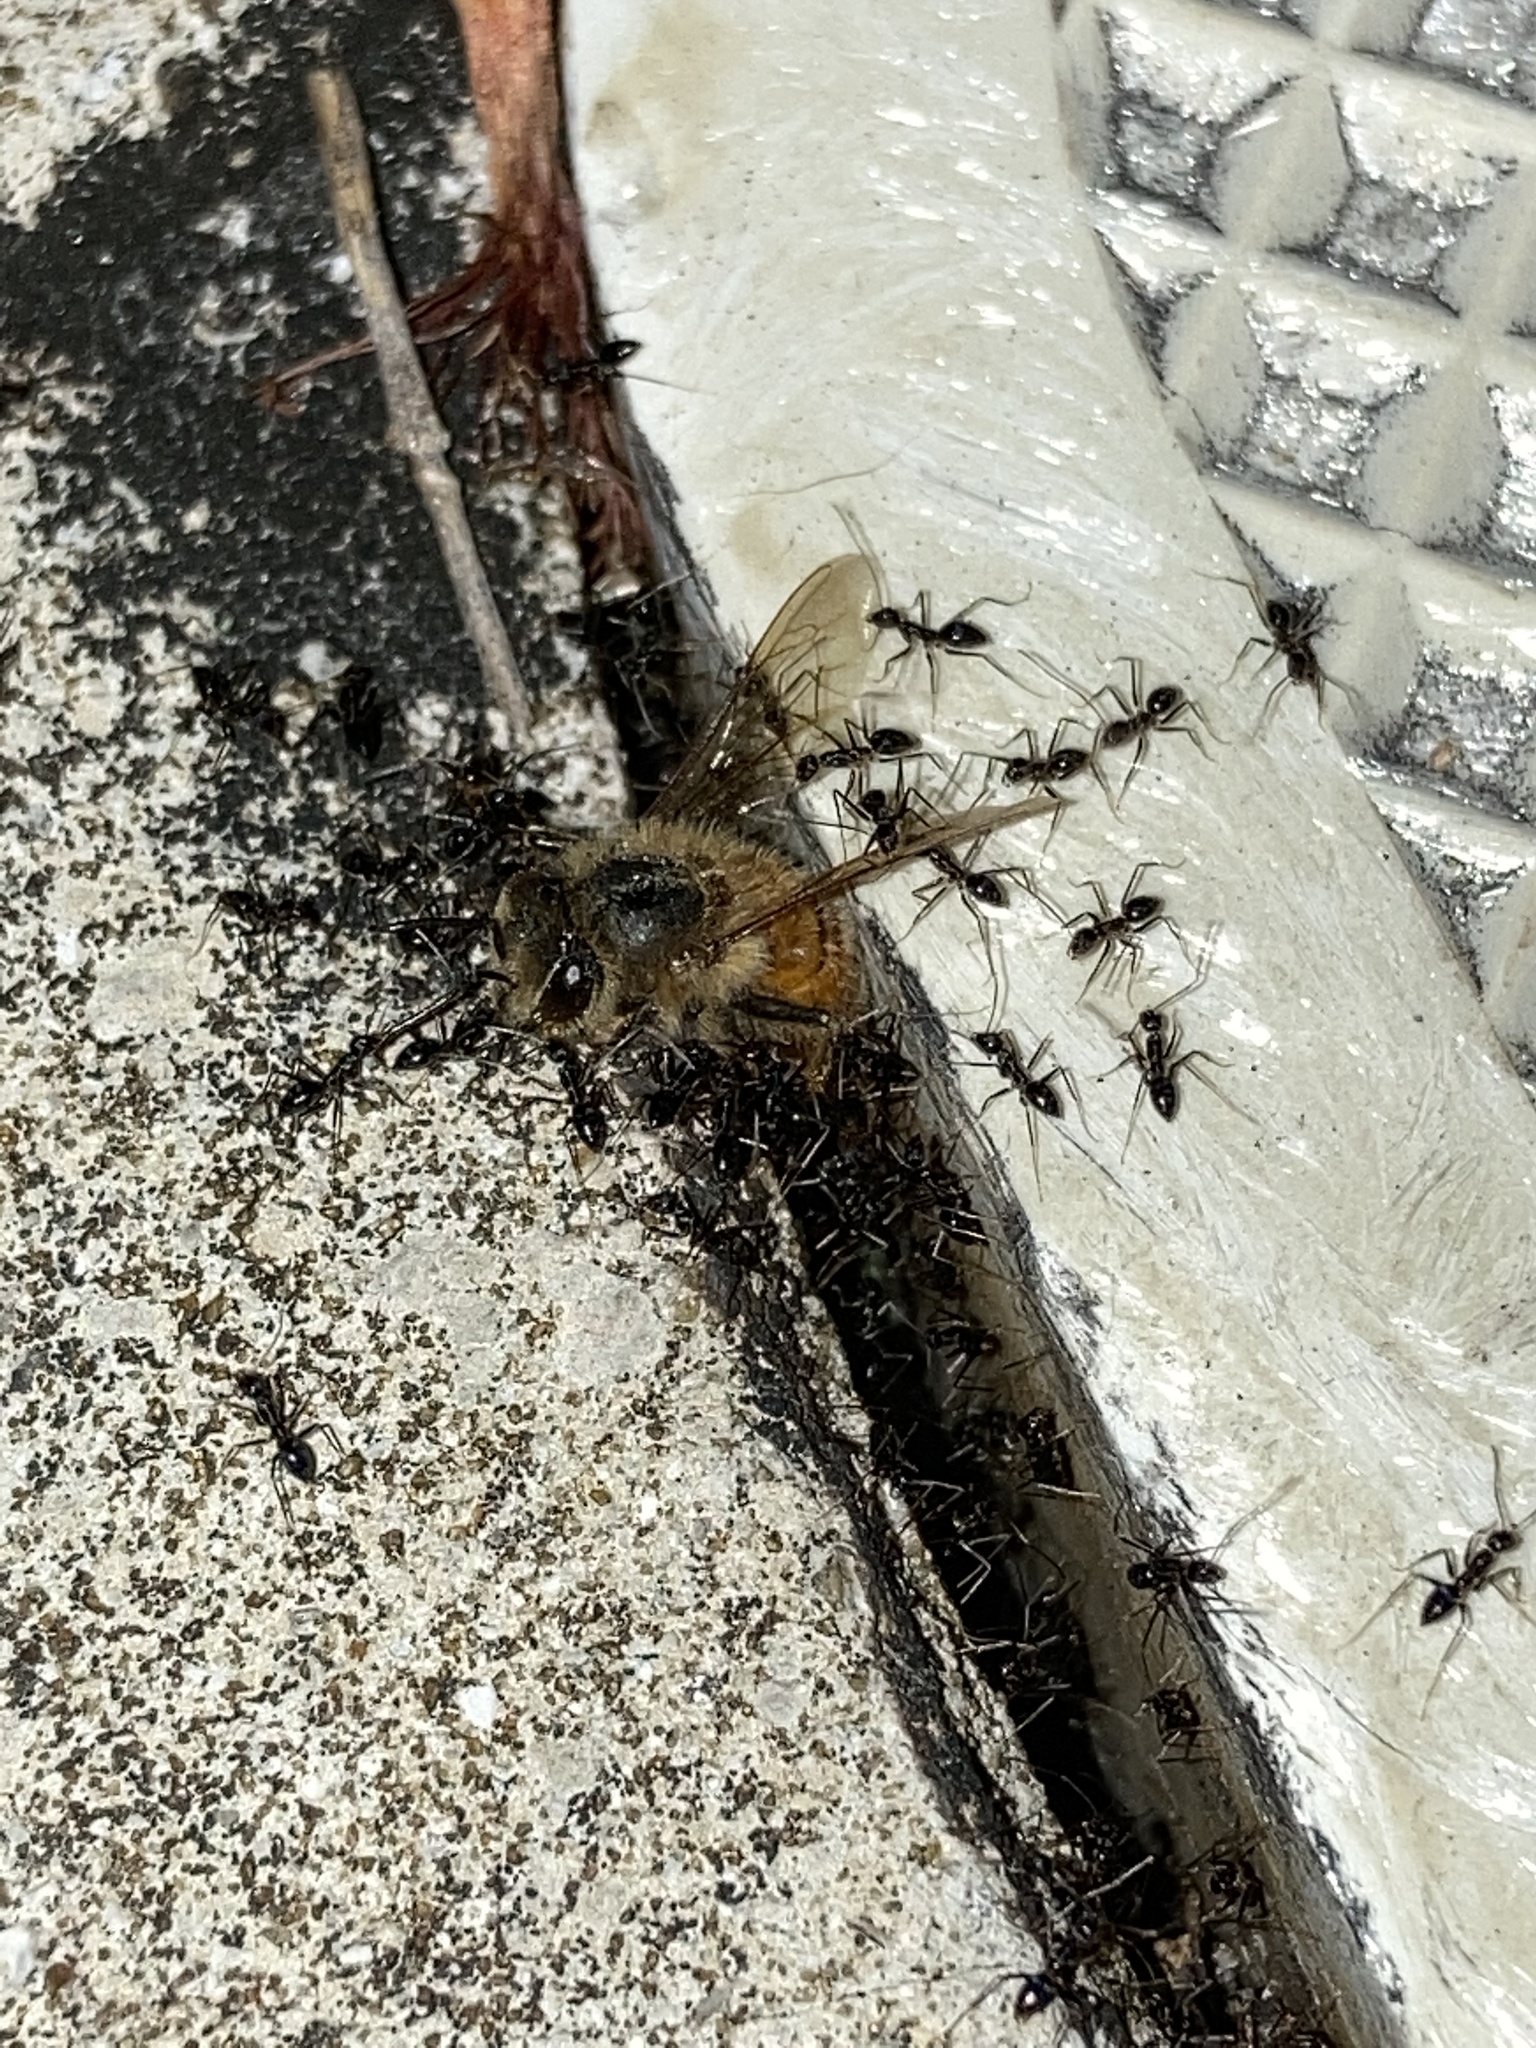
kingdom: Animalia
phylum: Arthropoda
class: Insecta
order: Hymenoptera
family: Formicidae
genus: Paratrechina
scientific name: Paratrechina longicornis
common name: Longhorned crazy ant
